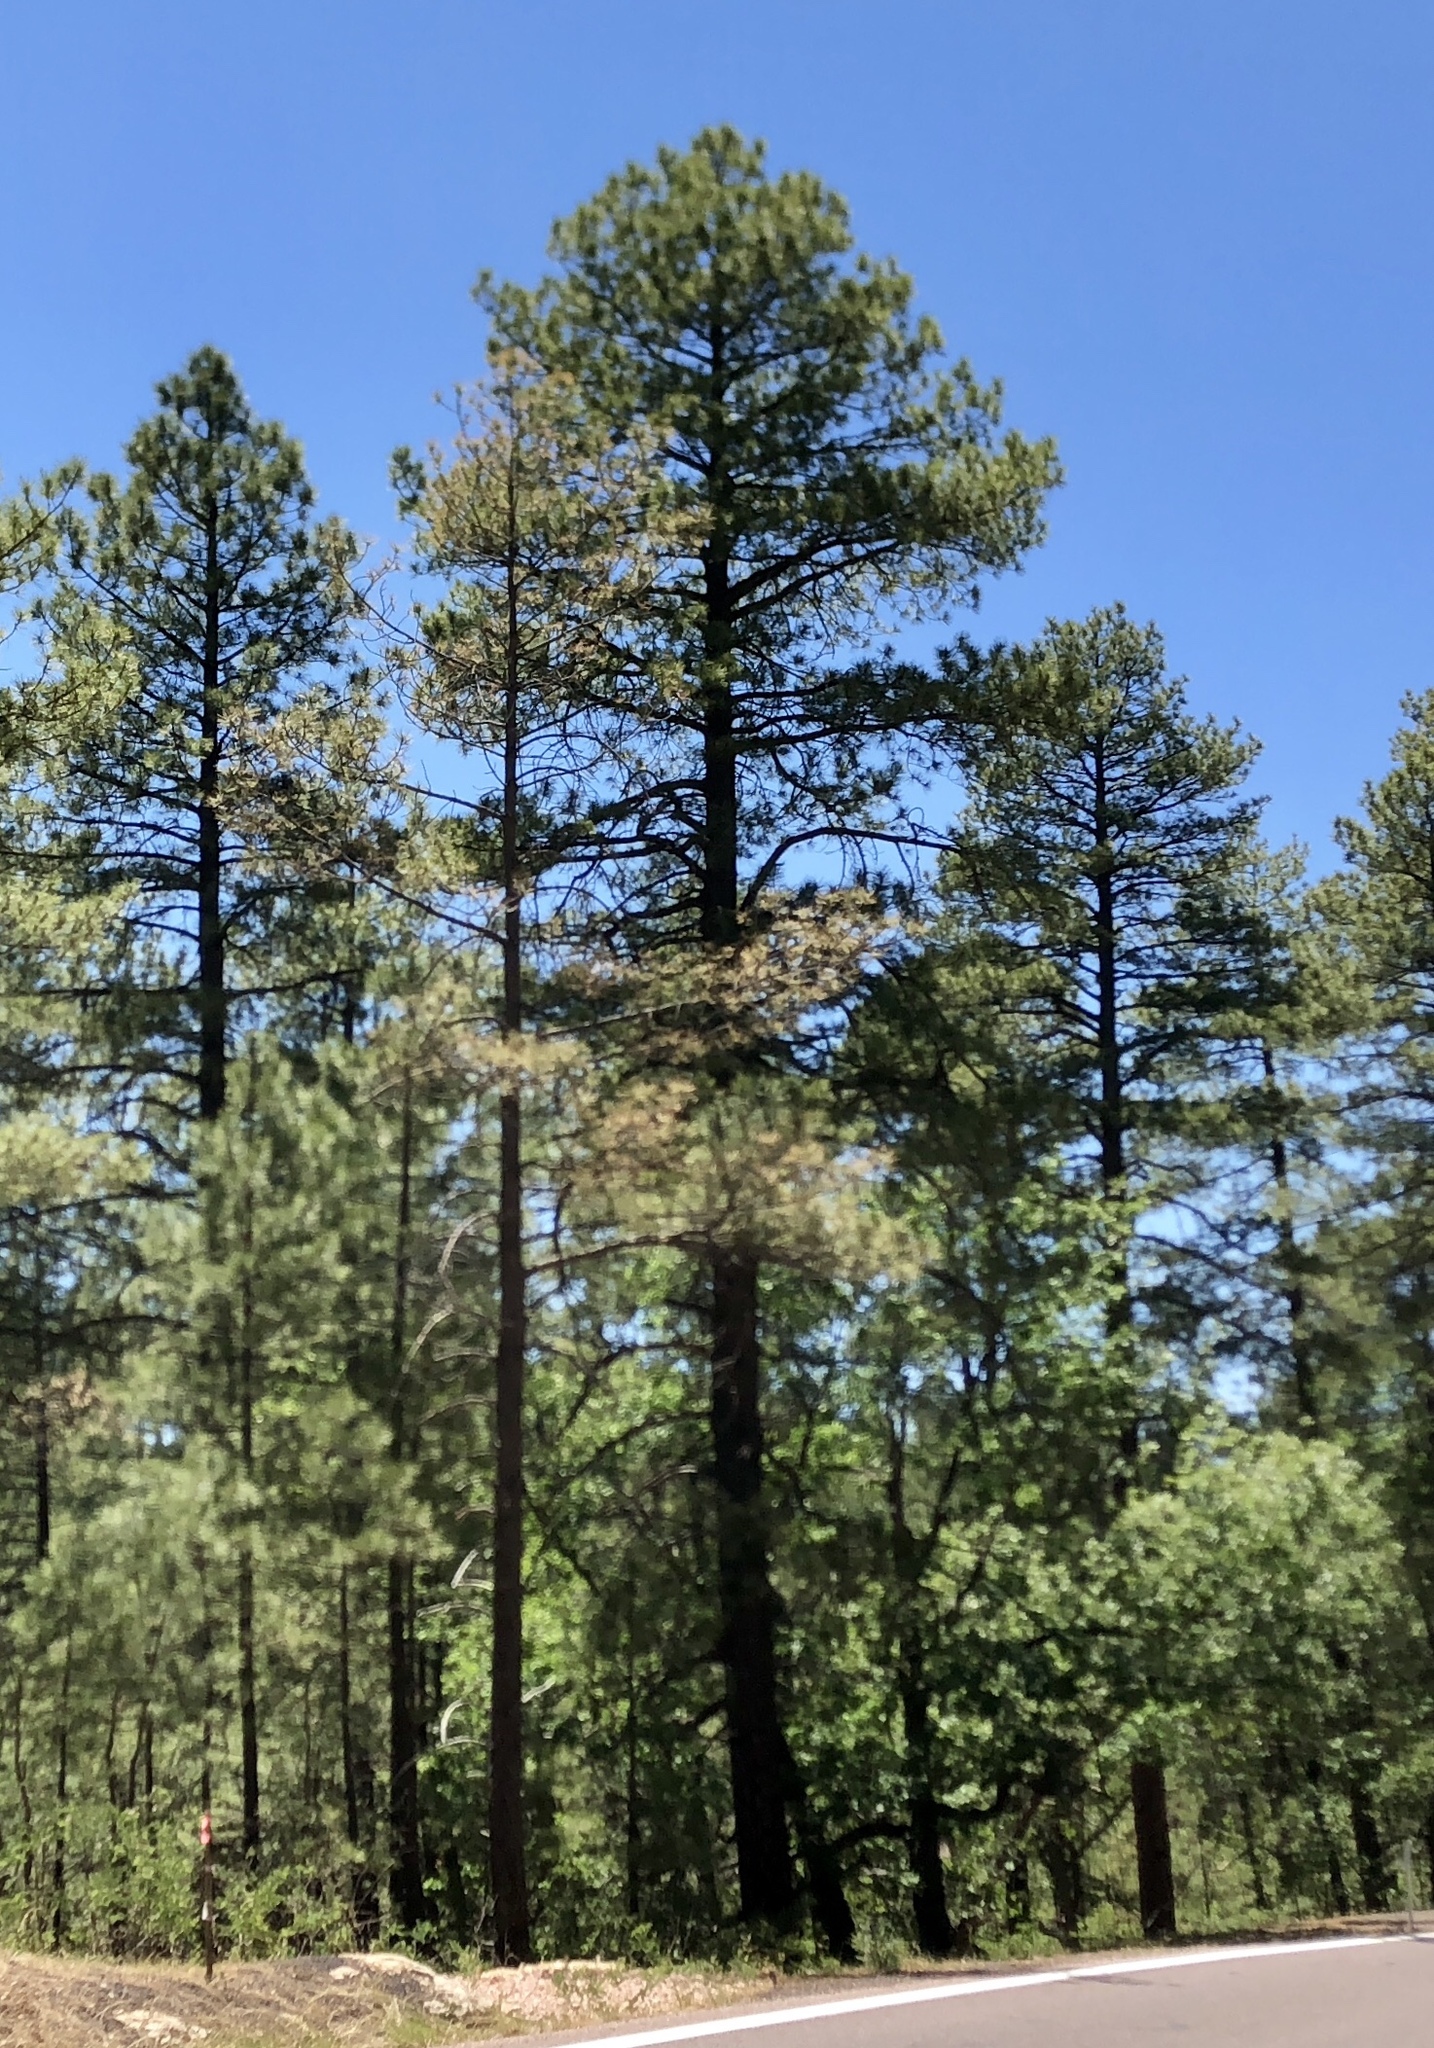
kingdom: Plantae
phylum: Tracheophyta
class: Pinopsida
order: Pinales
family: Pinaceae
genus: Pinus
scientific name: Pinus ponderosa
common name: Western yellow-pine
